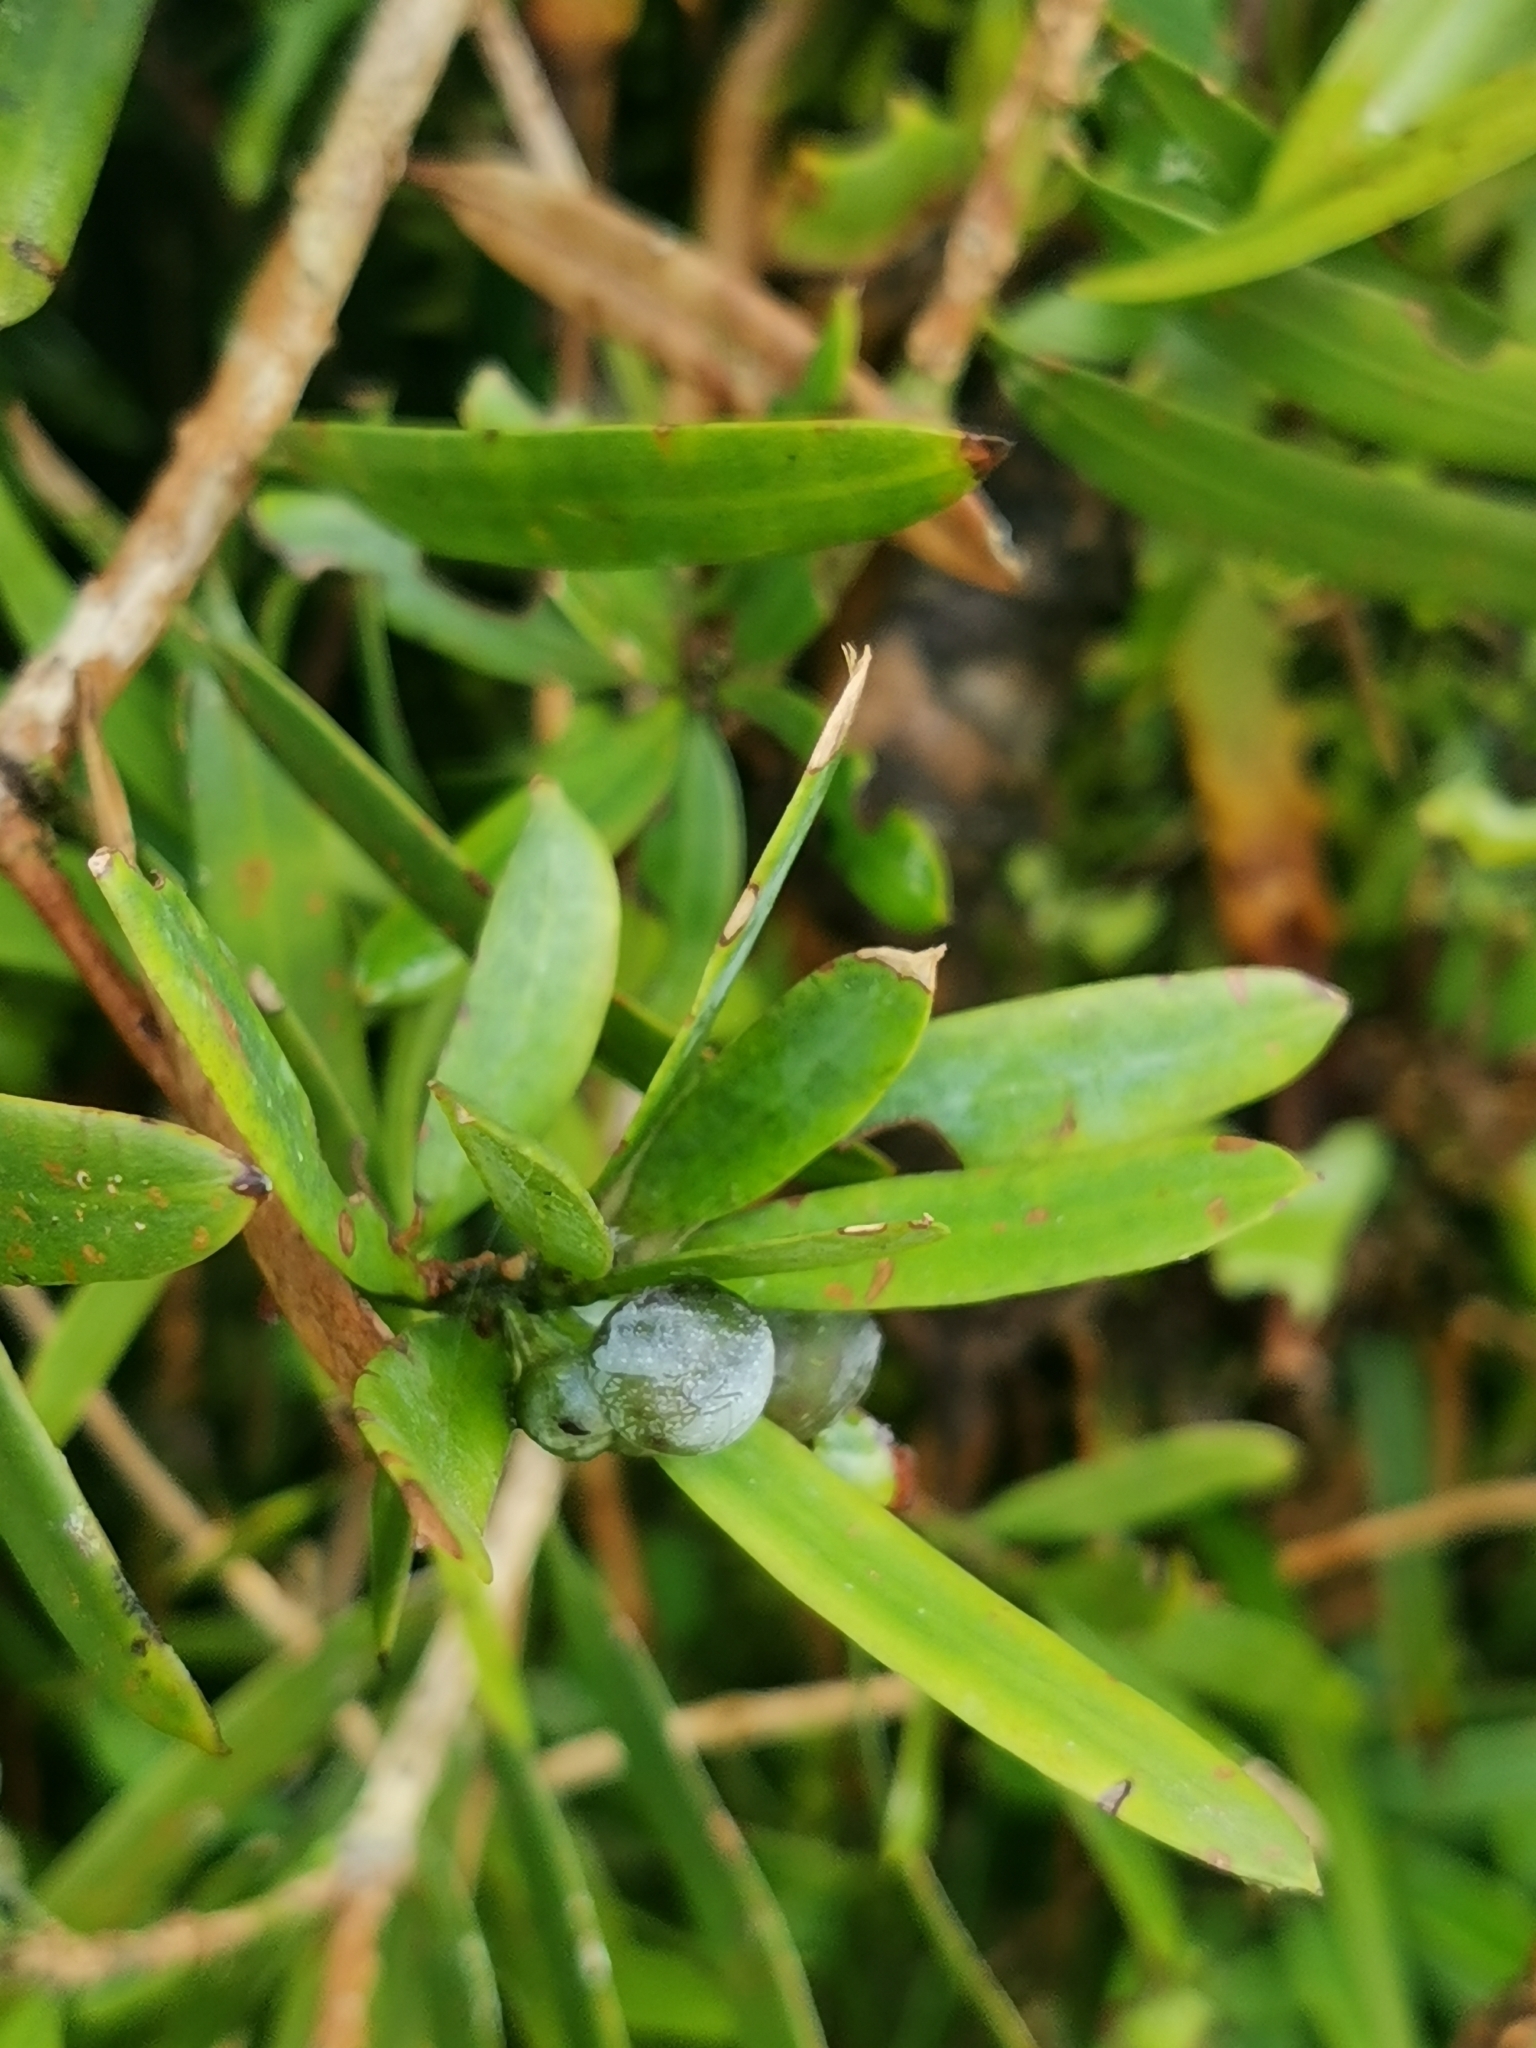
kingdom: Plantae
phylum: Tracheophyta
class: Pinopsida
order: Pinales
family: Podocarpaceae
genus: Podocarpus
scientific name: Podocarpus latifolius
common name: True yellowwood
